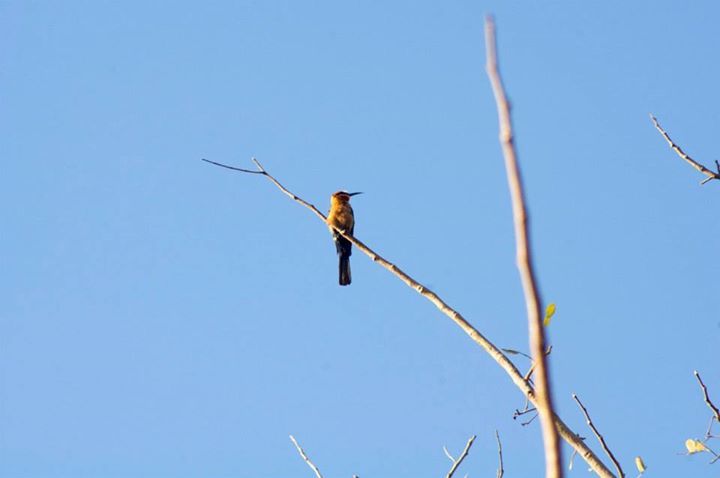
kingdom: Animalia
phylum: Chordata
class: Aves
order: Coraciiformes
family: Meropidae
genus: Merops
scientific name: Merops bullockoides
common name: White-fronted bee-eater
